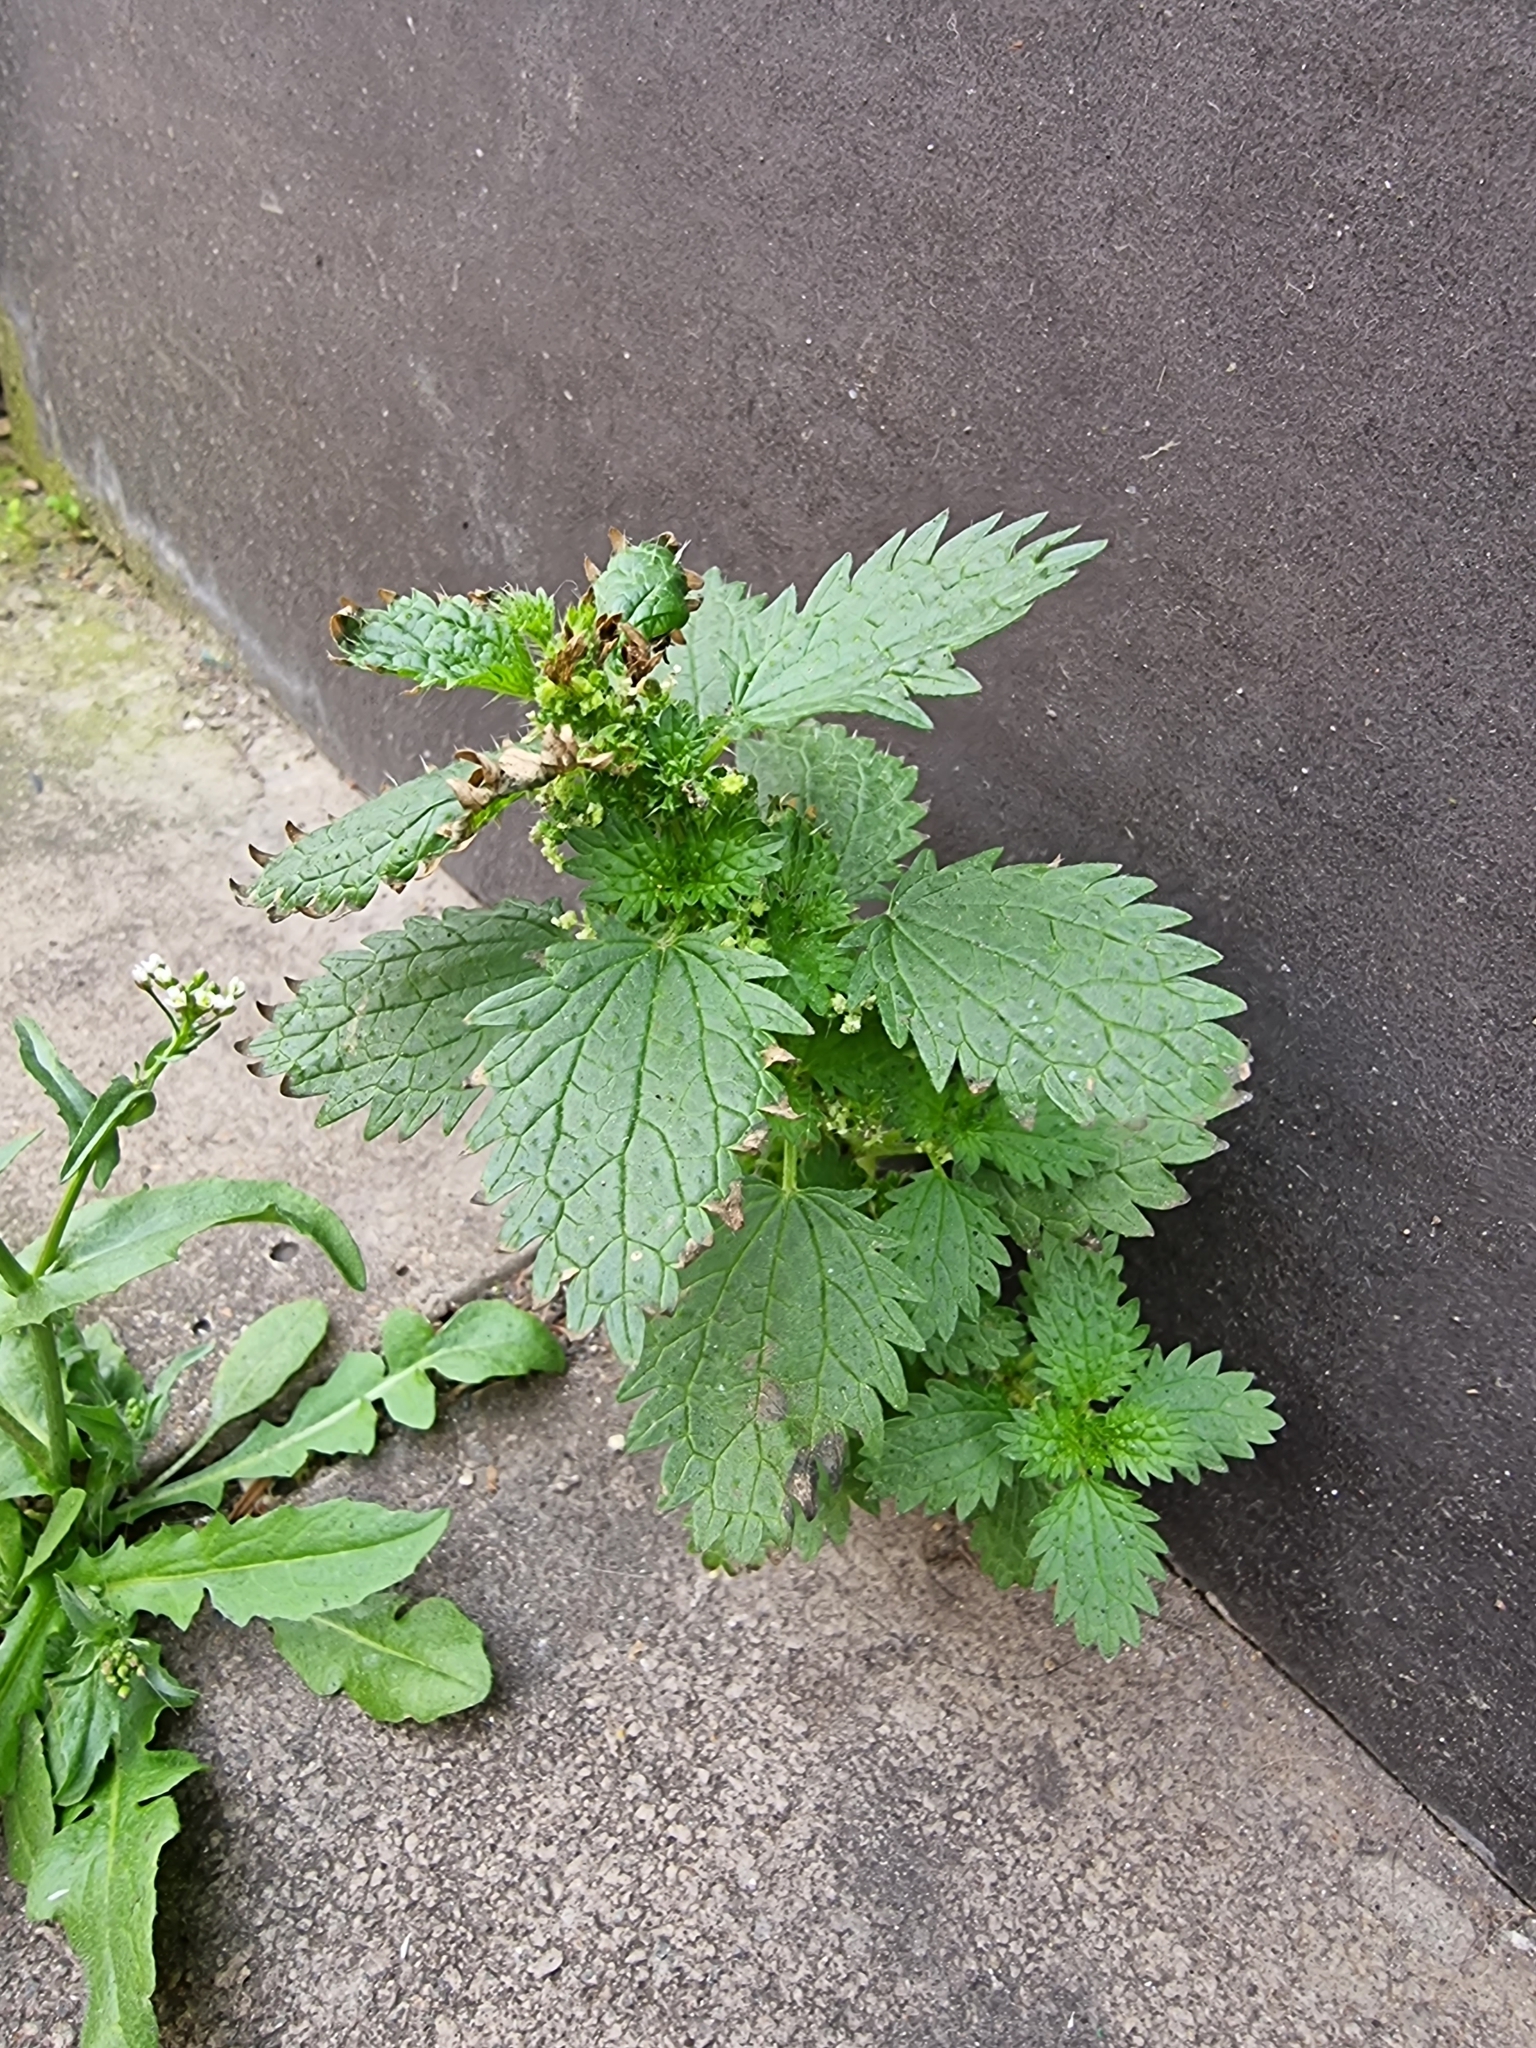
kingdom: Plantae
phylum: Tracheophyta
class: Magnoliopsida
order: Rosales
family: Urticaceae
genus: Urtica
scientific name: Urtica urens
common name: Dwarf nettle
